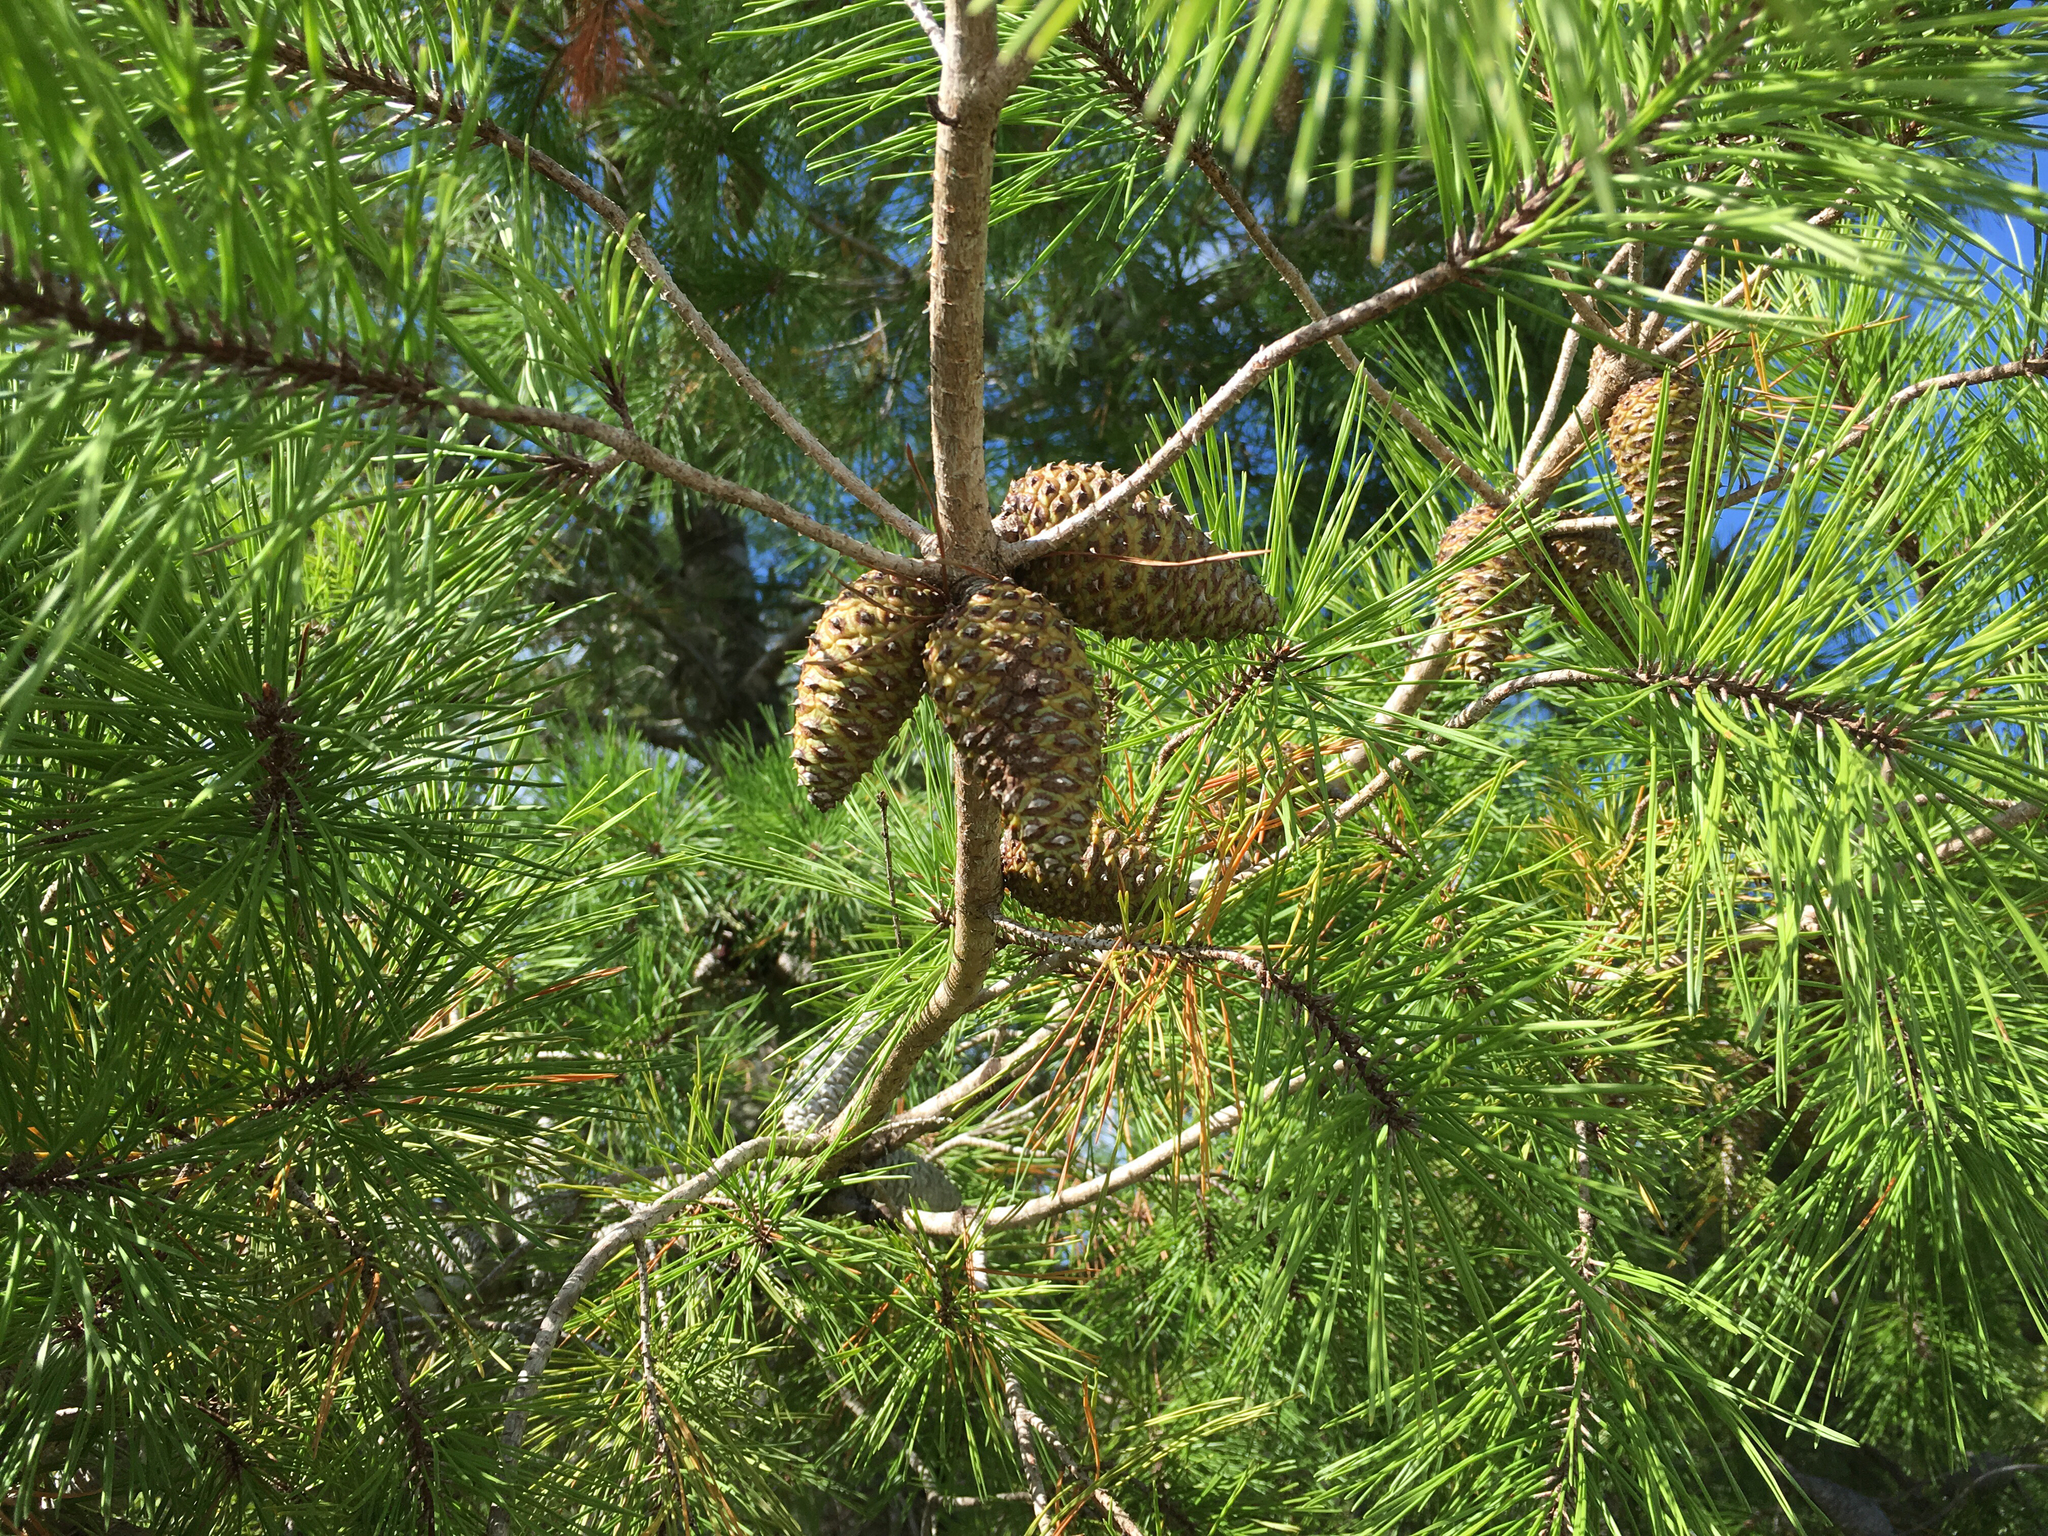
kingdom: Plantae
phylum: Tracheophyta
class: Pinopsida
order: Pinales
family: Pinaceae
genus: Pinus
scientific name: Pinus clausa
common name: Sand pine
